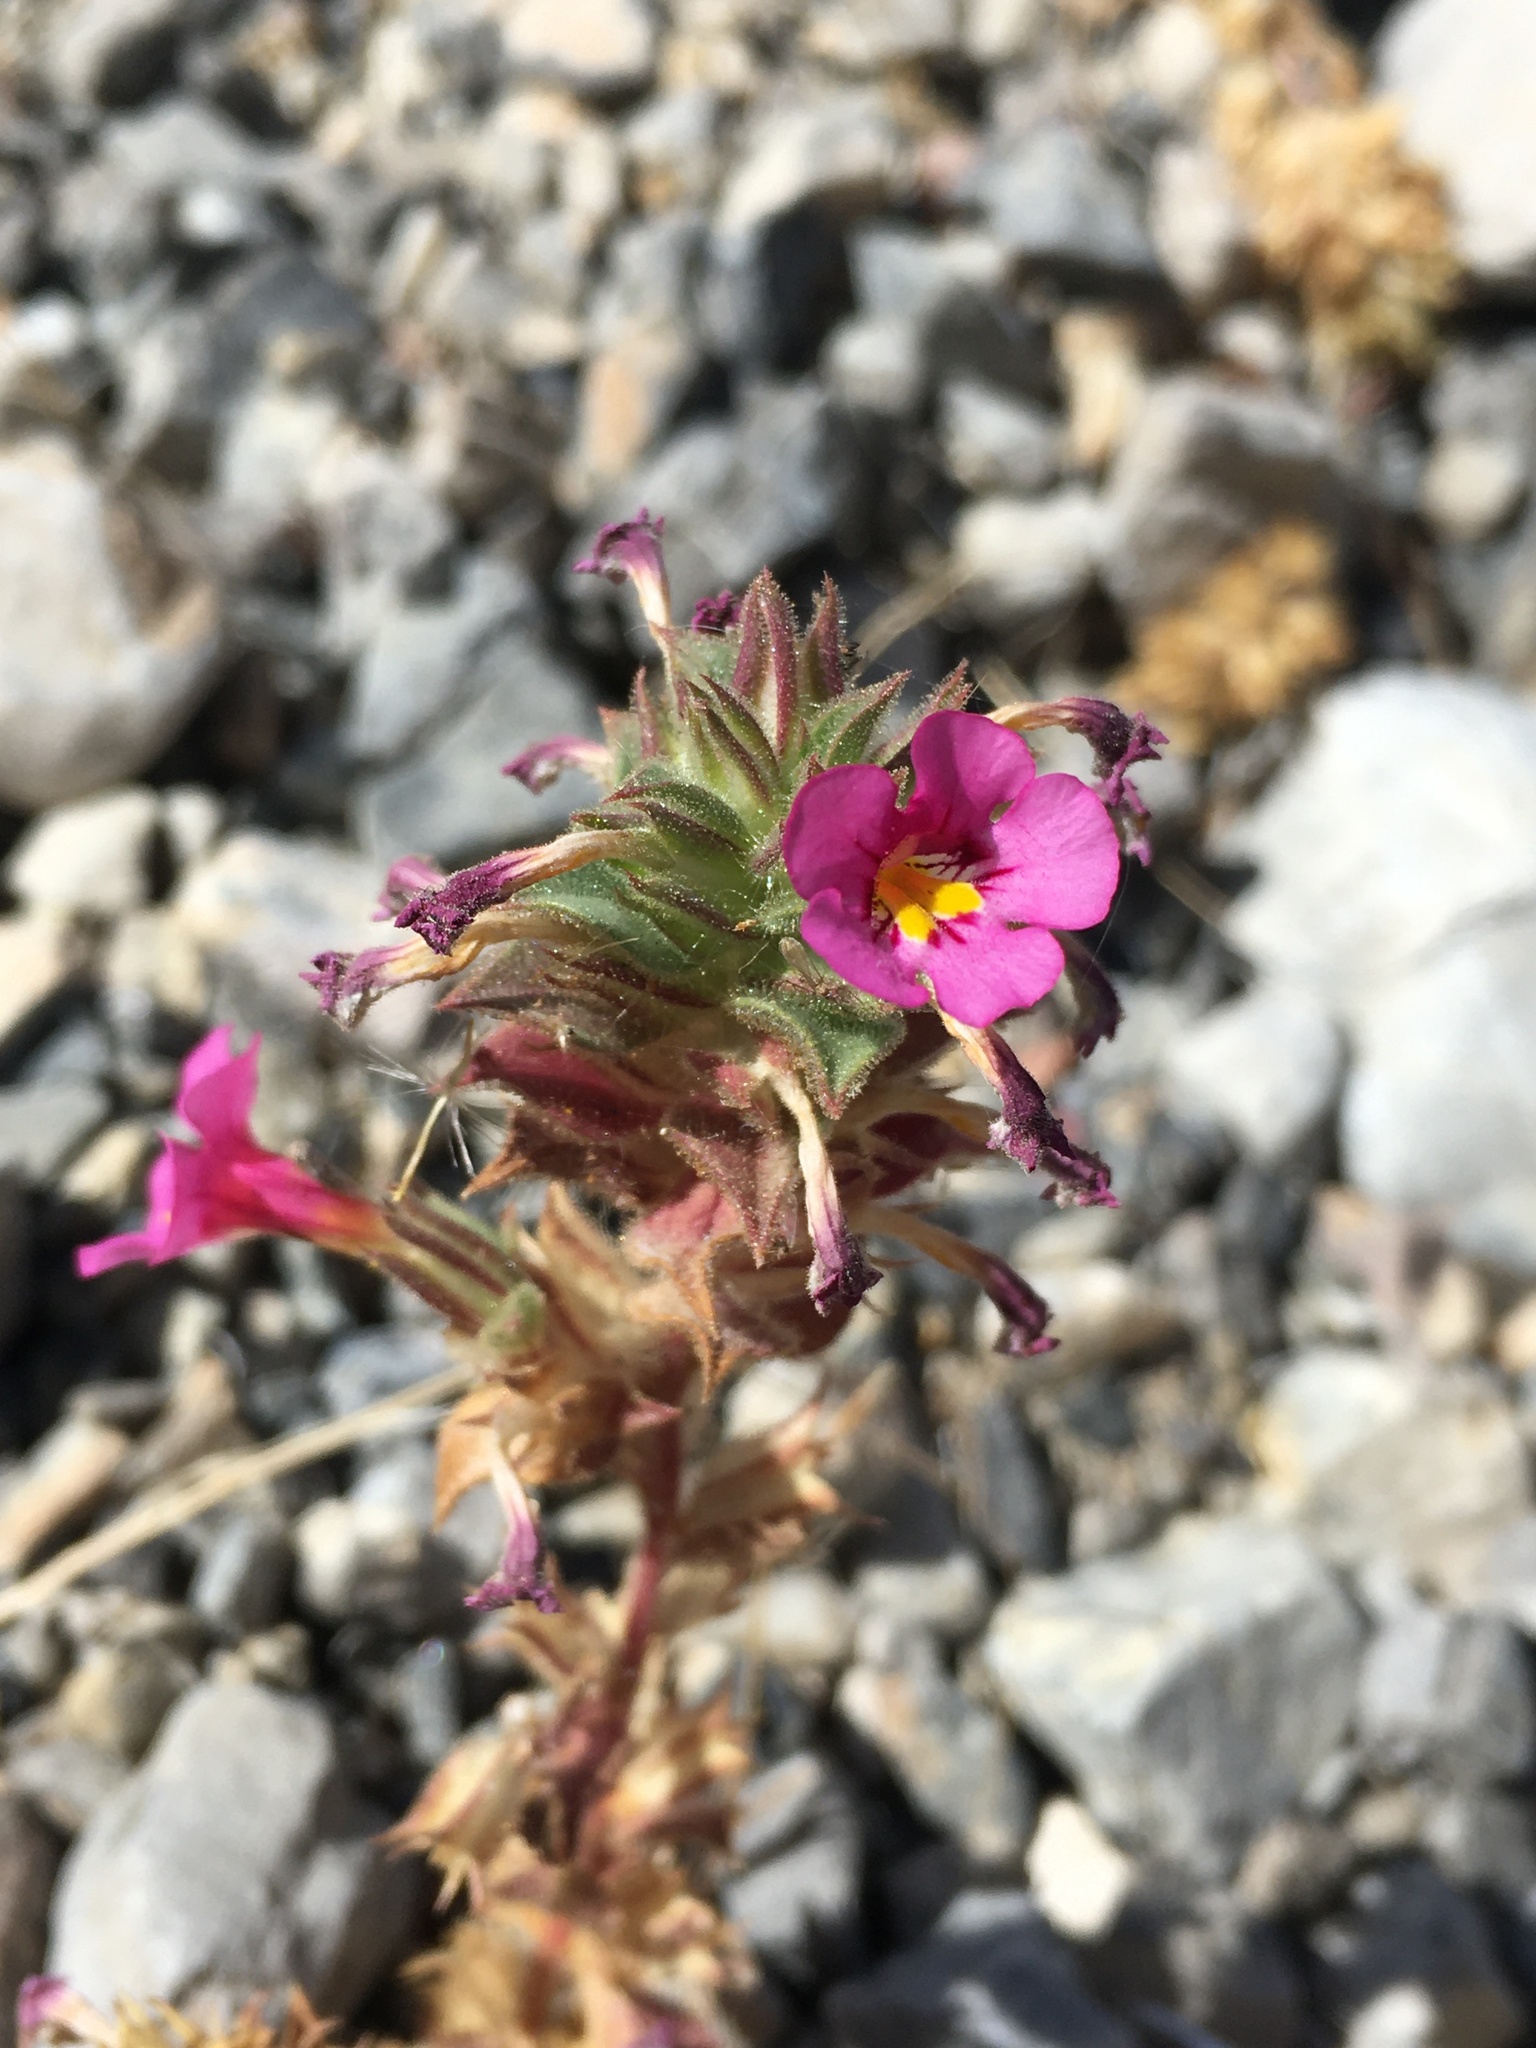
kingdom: Plantae
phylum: Tracheophyta
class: Magnoliopsida
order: Lamiales
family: Phrymaceae
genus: Diplacus
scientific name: Diplacus bigelovii
